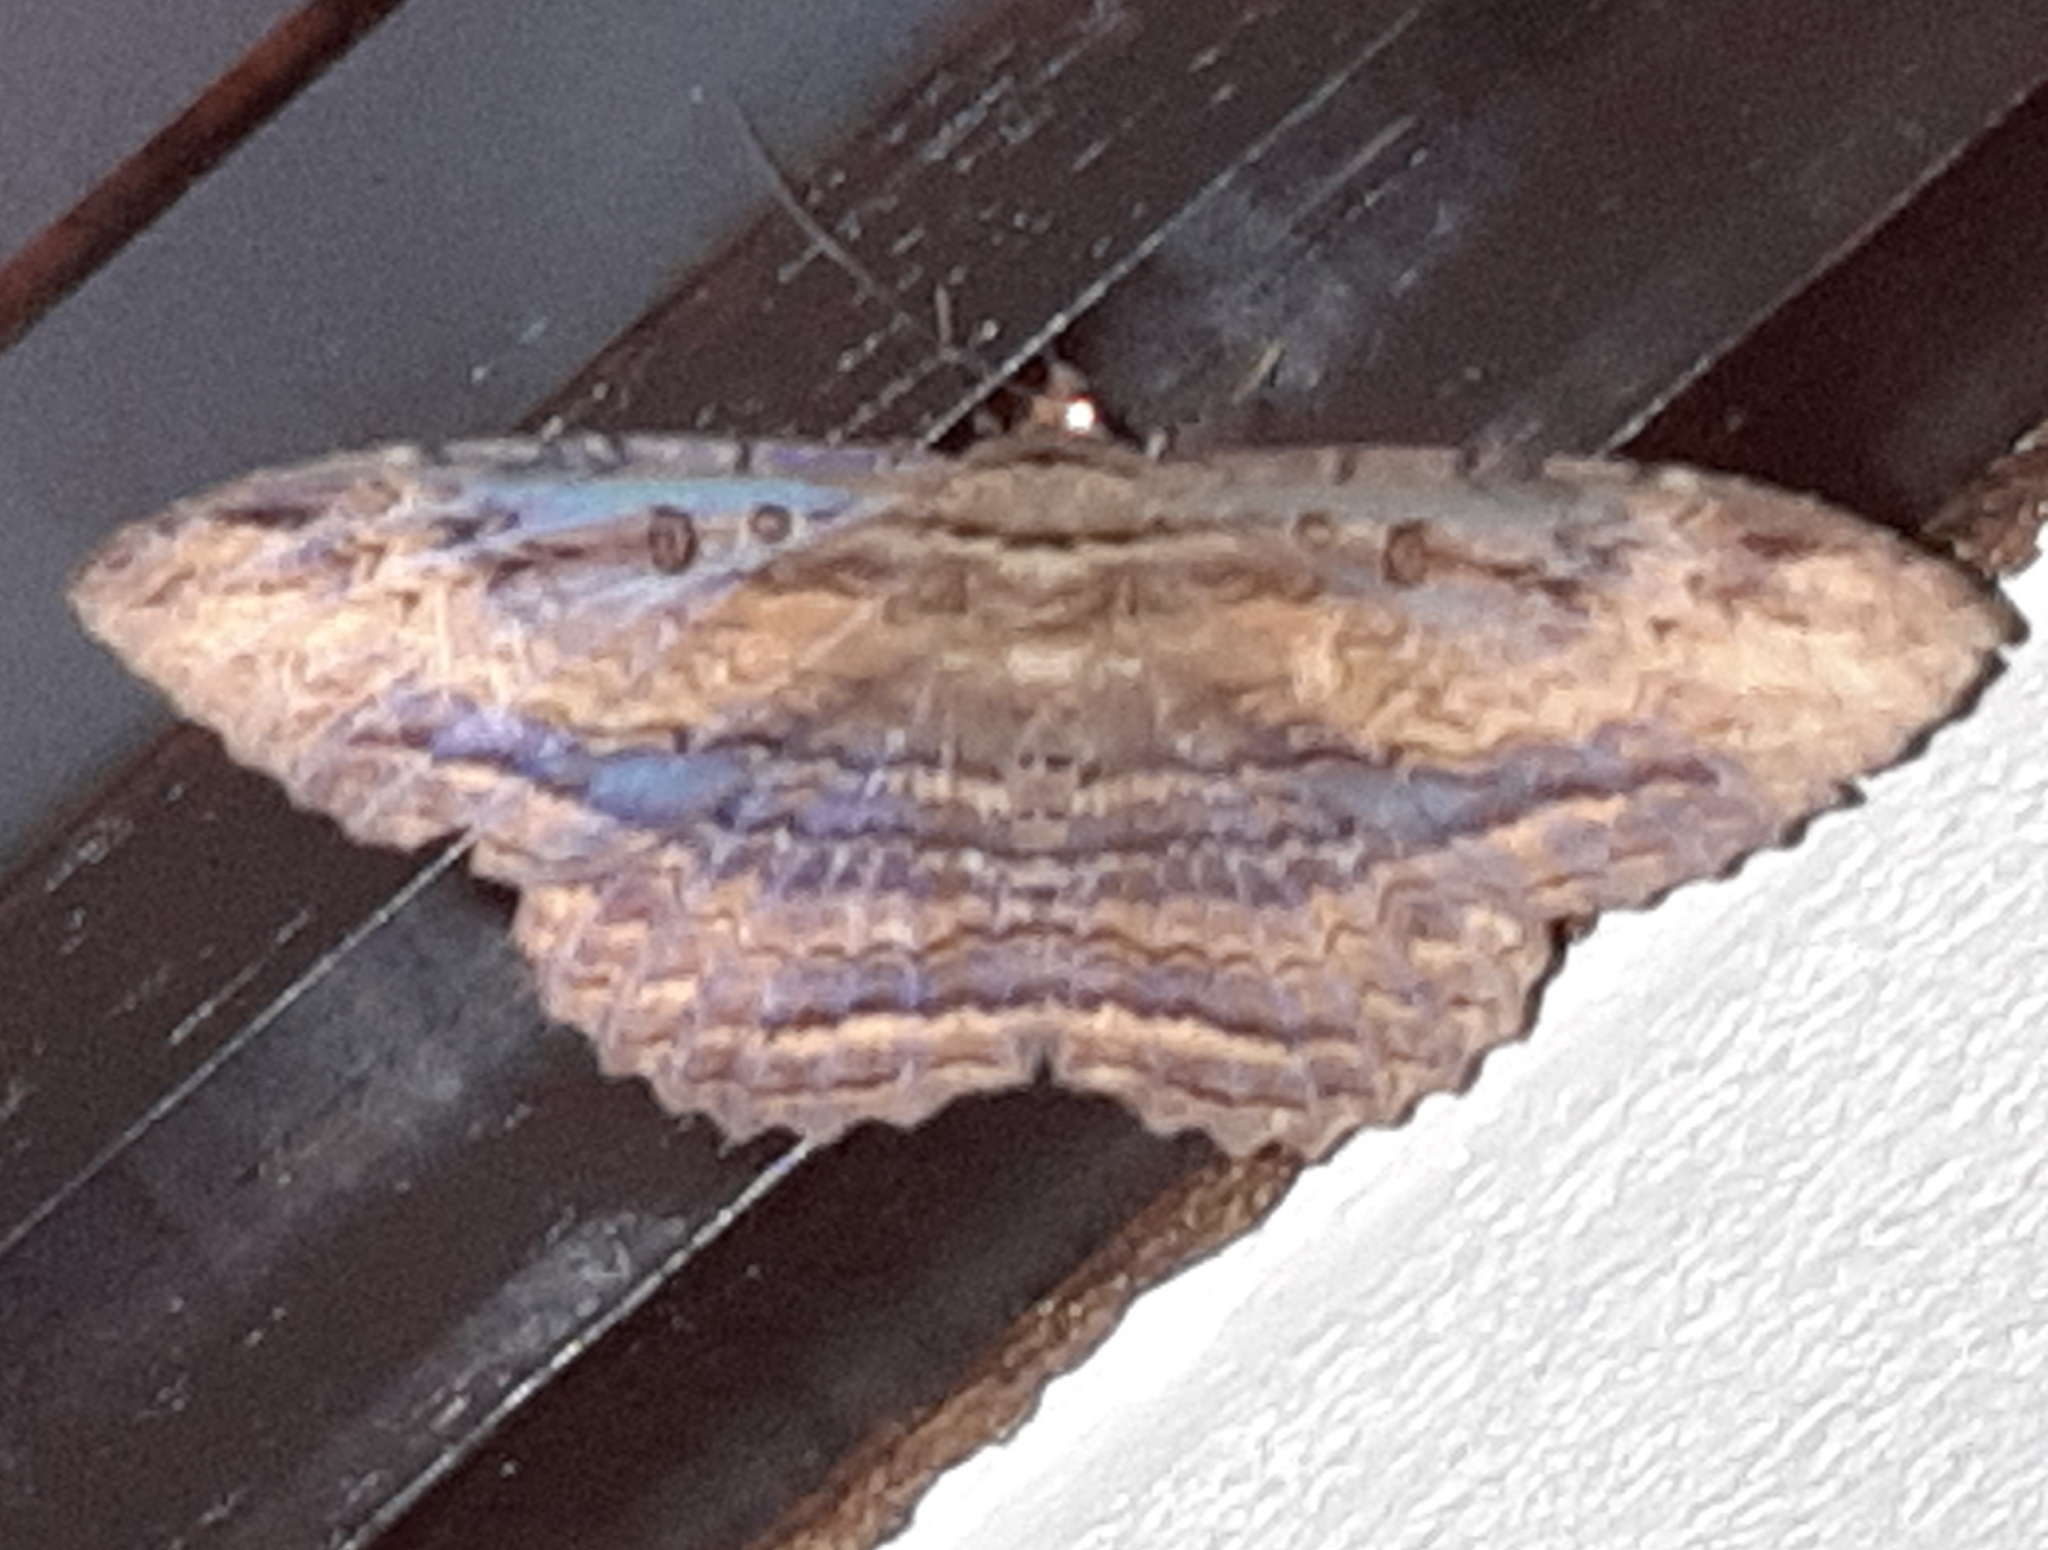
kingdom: Animalia
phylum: Arthropoda
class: Insecta
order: Lepidoptera
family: Erebidae
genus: Feigeria
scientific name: Feigeria buteo
